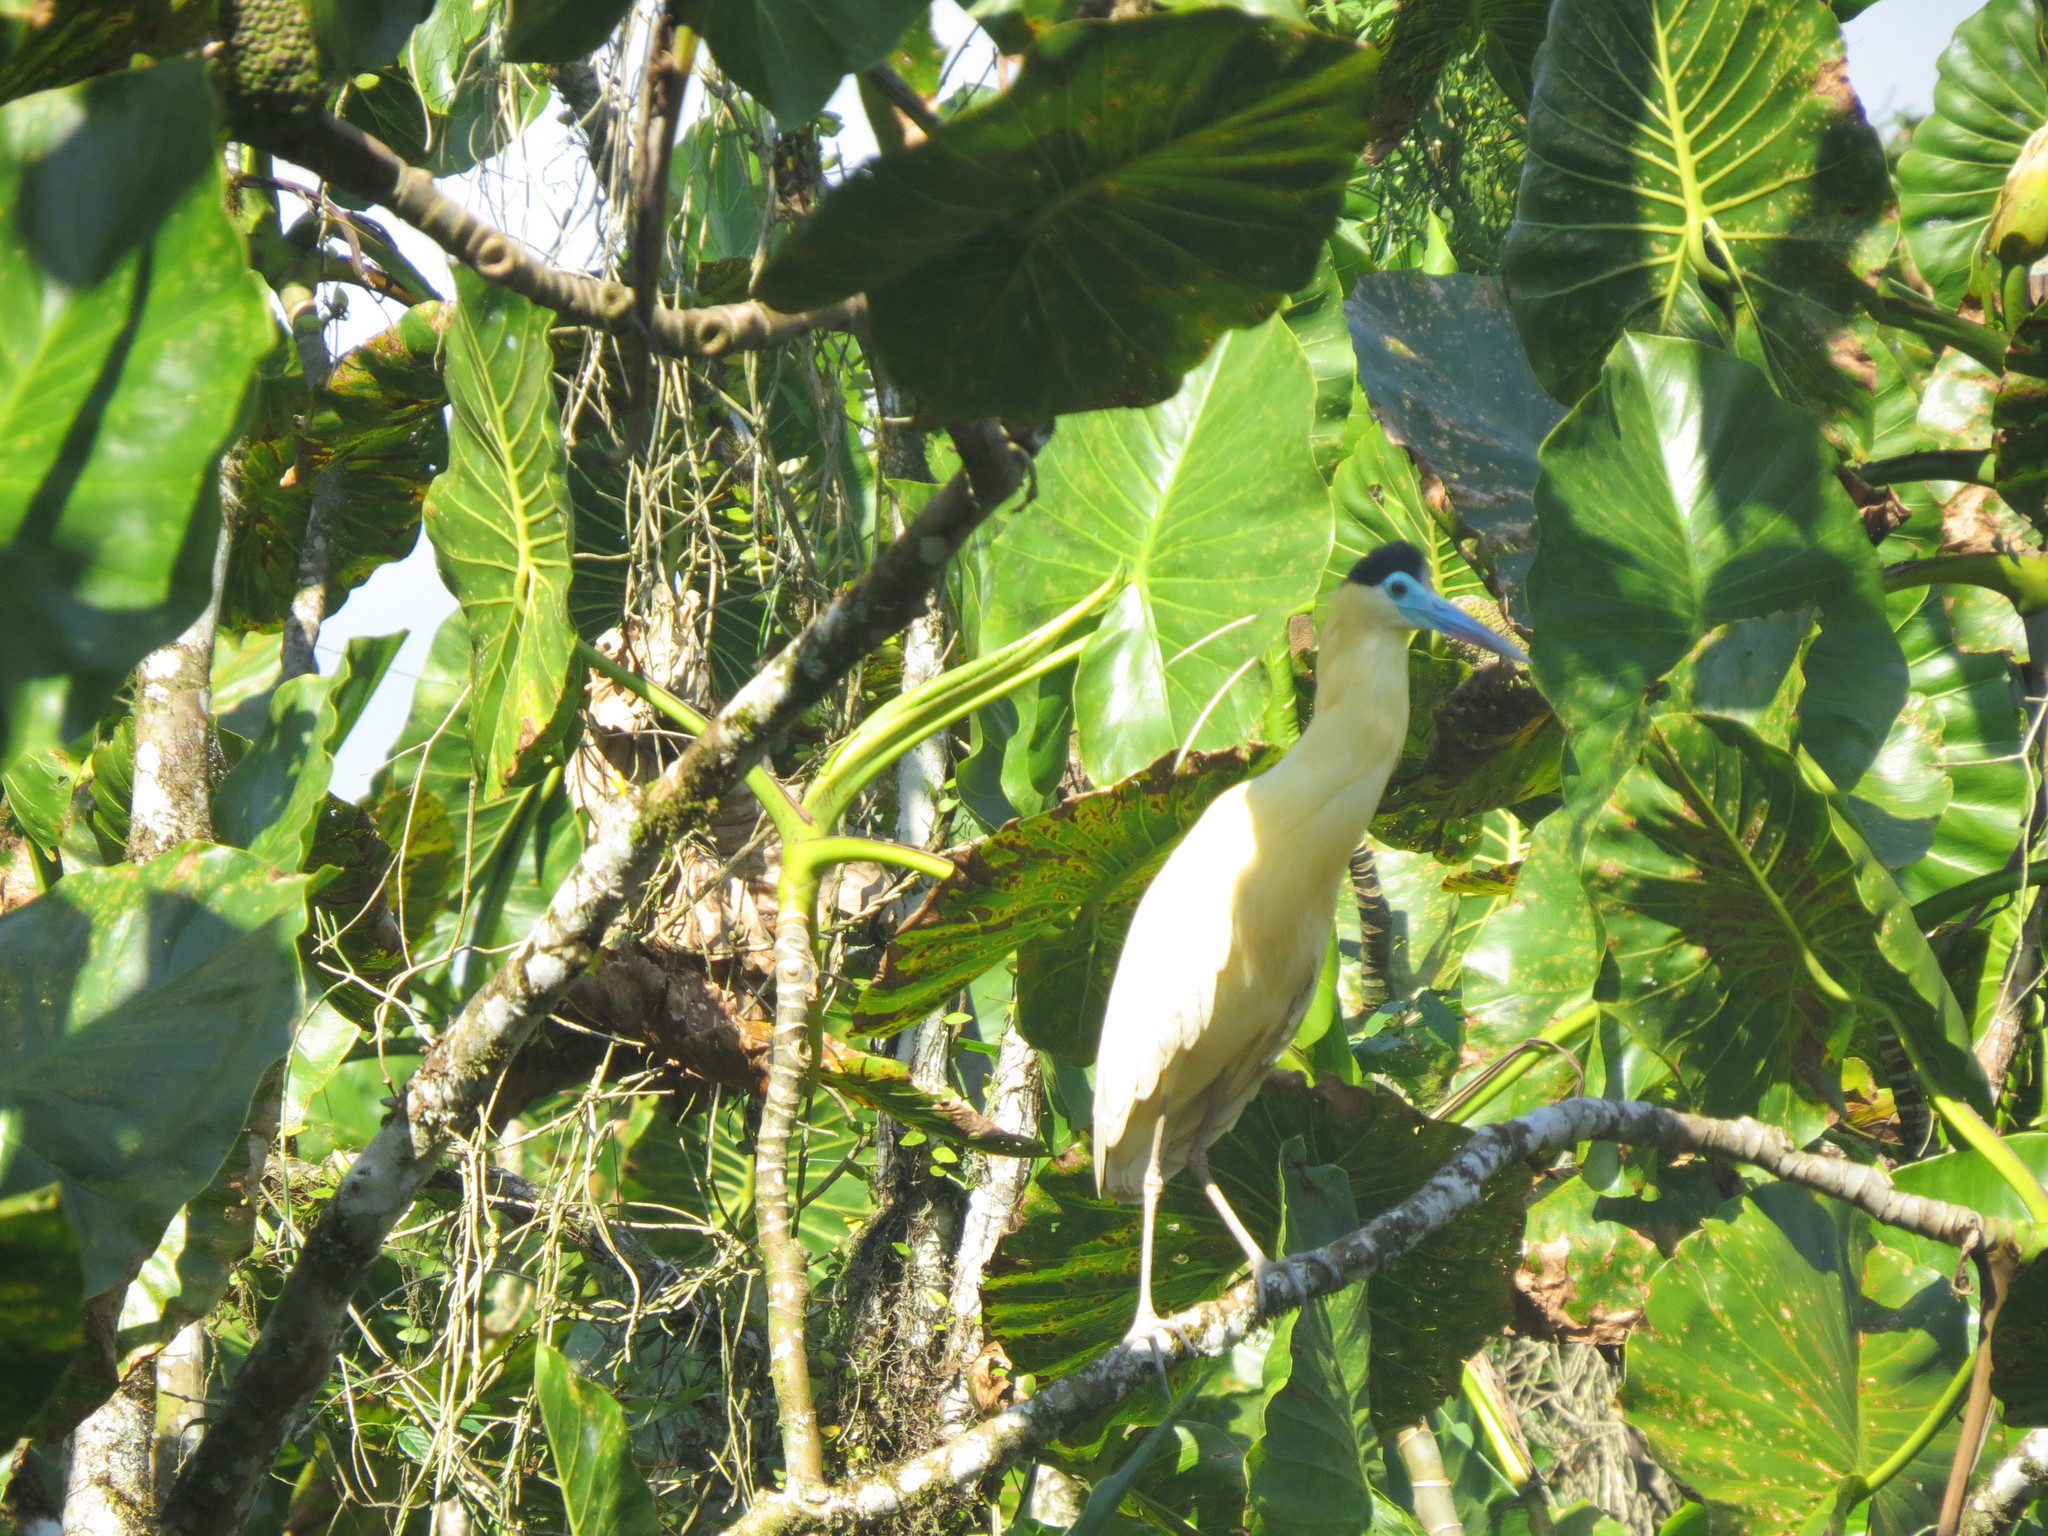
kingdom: Animalia
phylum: Chordata
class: Aves
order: Pelecaniformes
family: Ardeidae
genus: Pilherodius
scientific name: Pilherodius pileatus
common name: Capped heron
